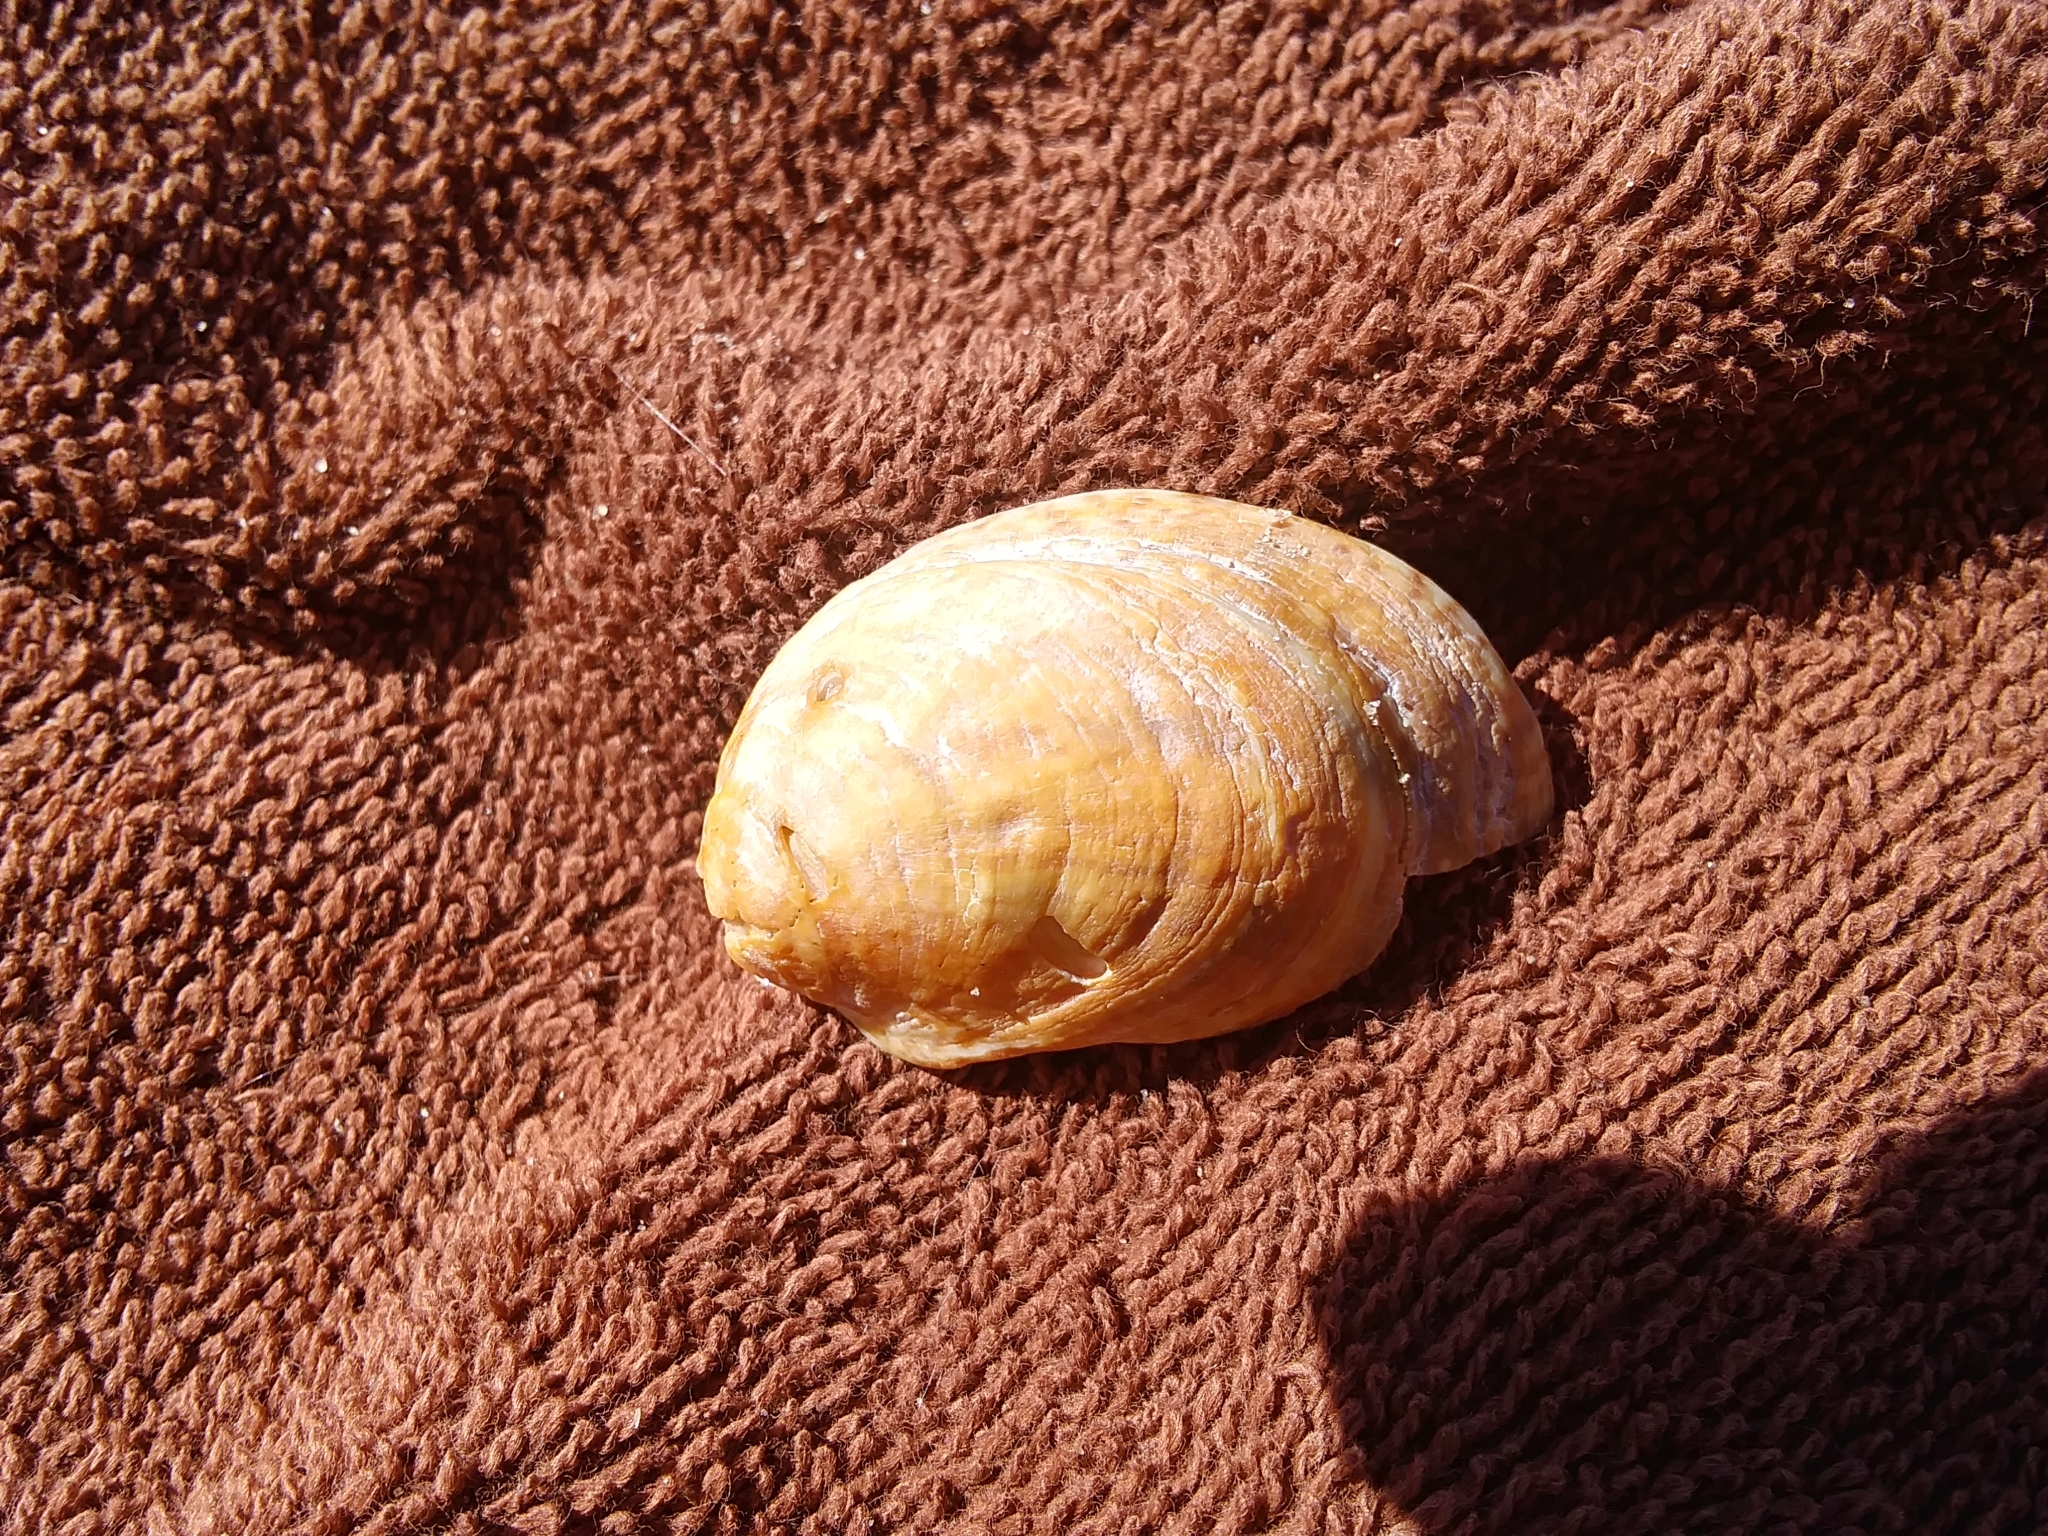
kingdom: Animalia
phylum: Mollusca
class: Gastropoda
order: Littorinimorpha
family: Calyptraeidae
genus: Crepidula
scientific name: Crepidula fornicata
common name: Slipper limpet
